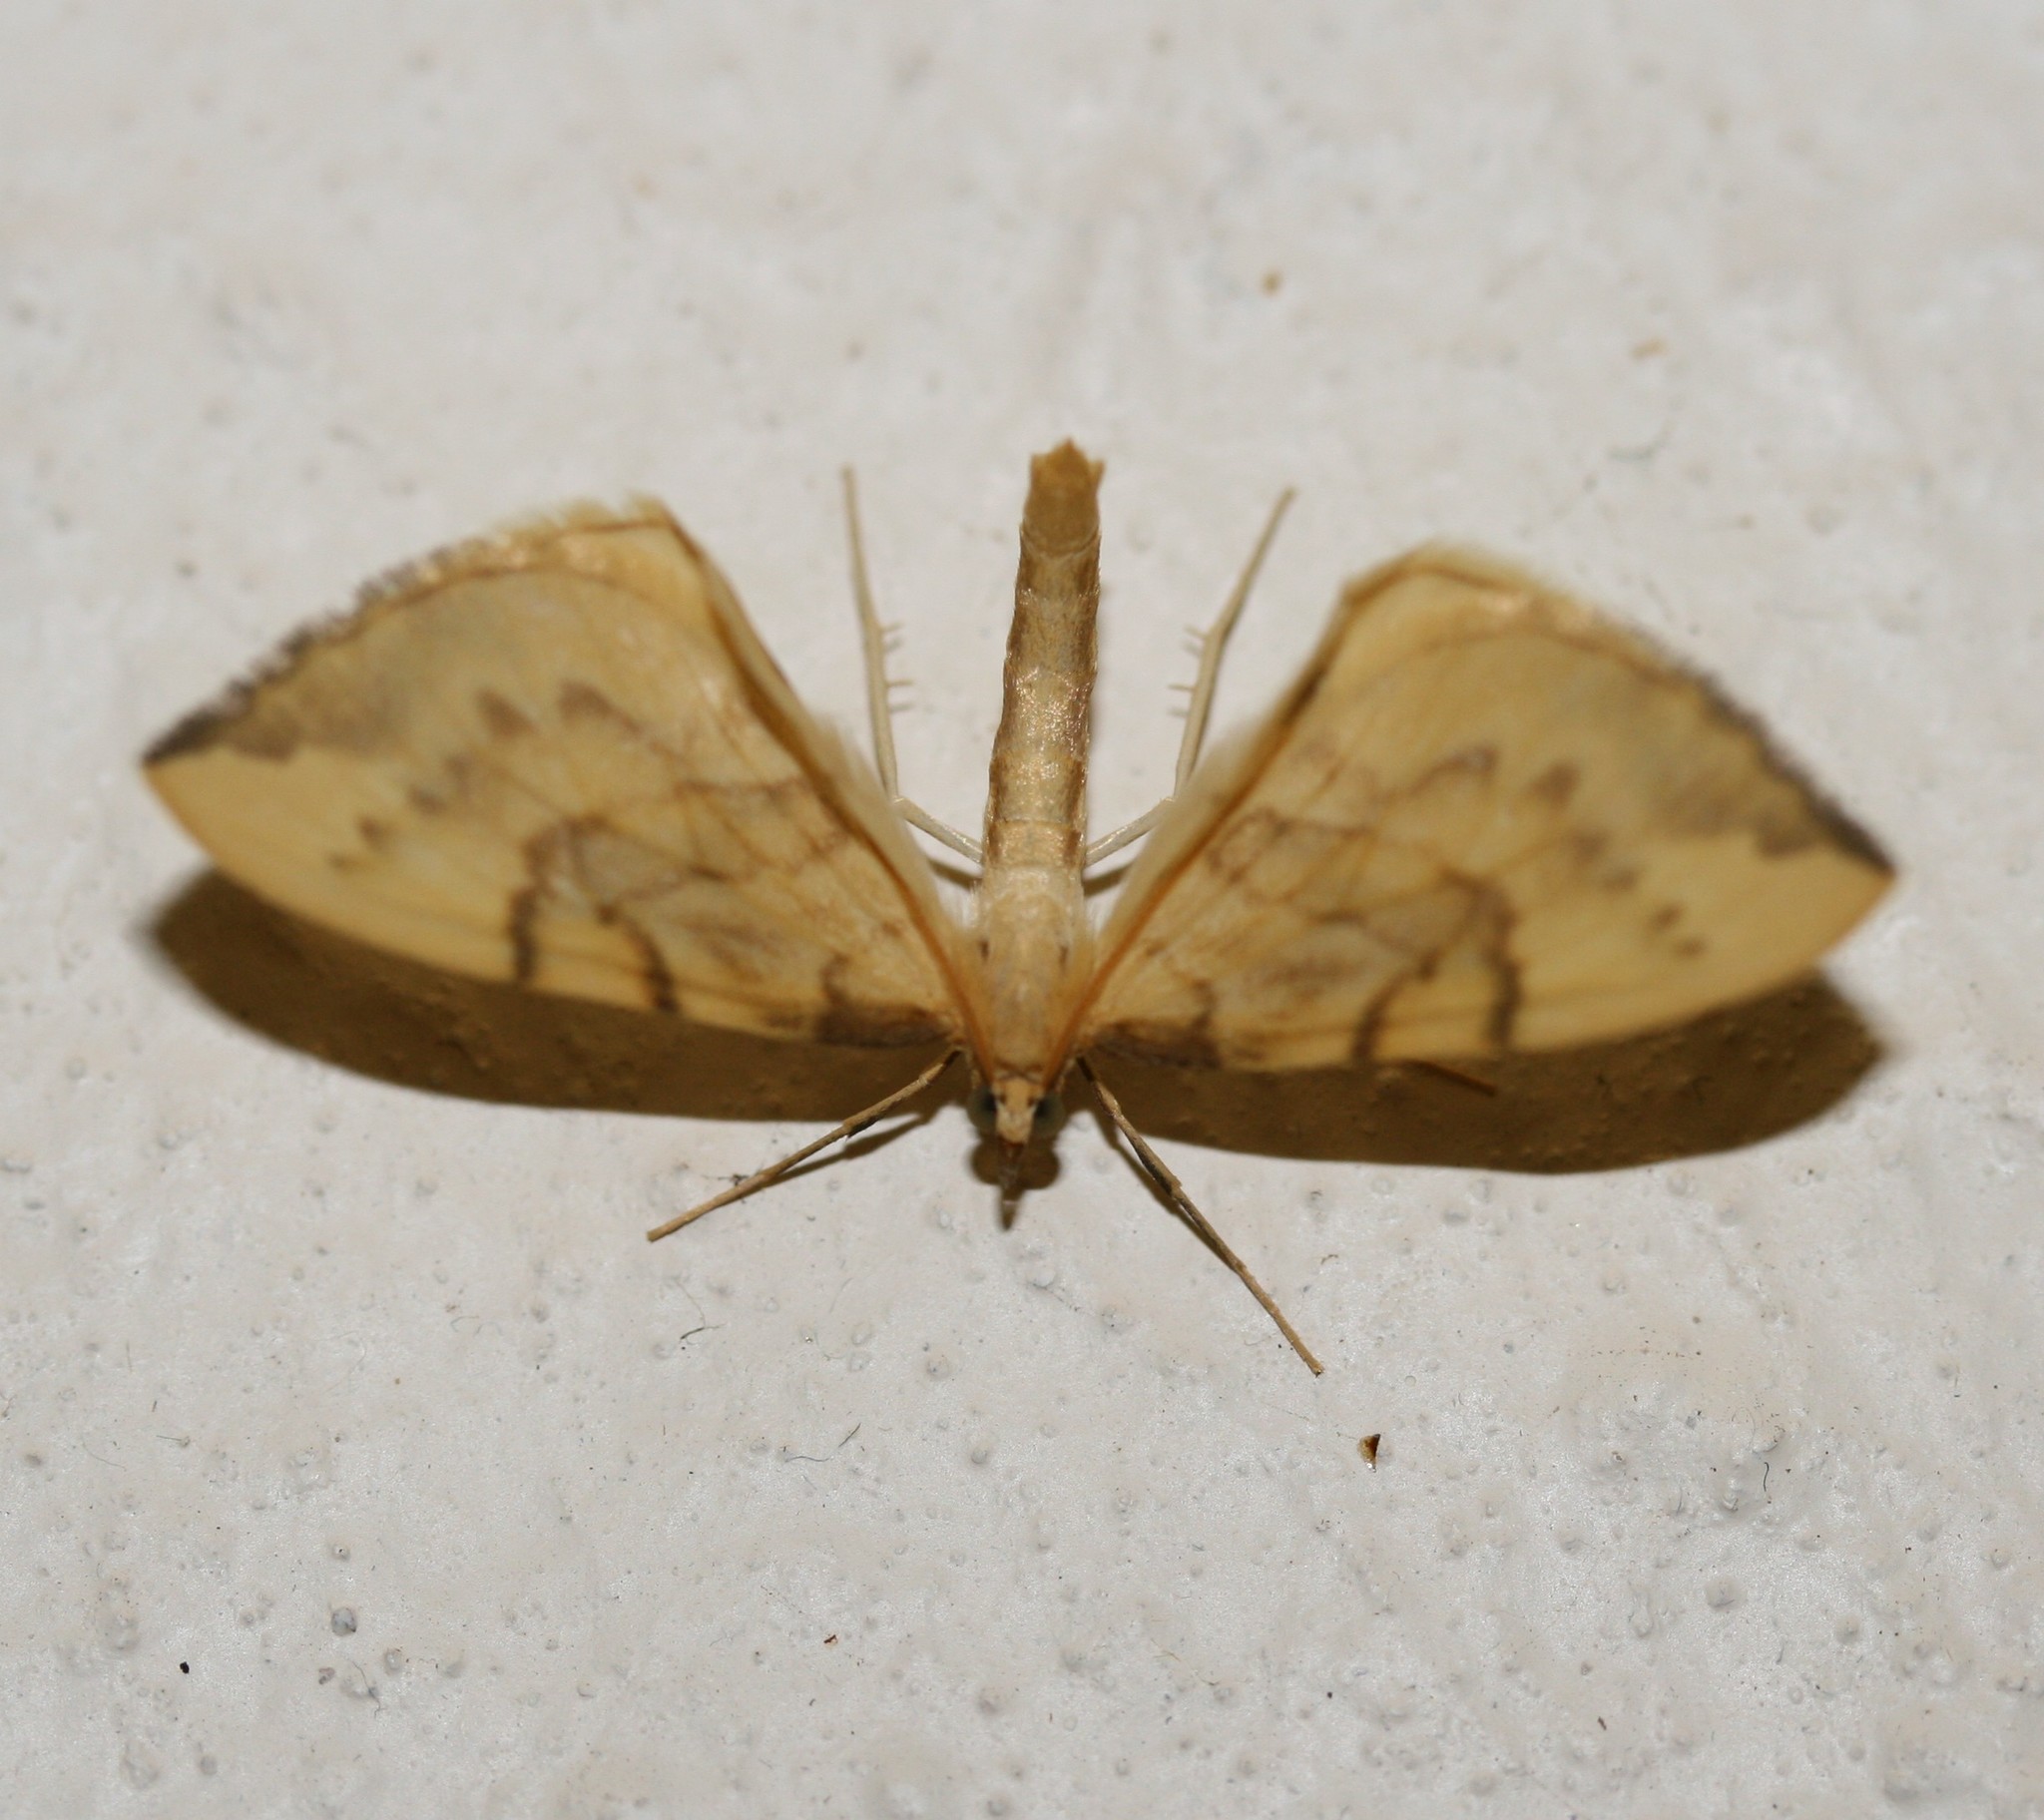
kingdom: Animalia
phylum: Arthropoda
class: Insecta
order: Lepidoptera
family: Geometridae
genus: Eulithis
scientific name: Eulithis pyraliata
